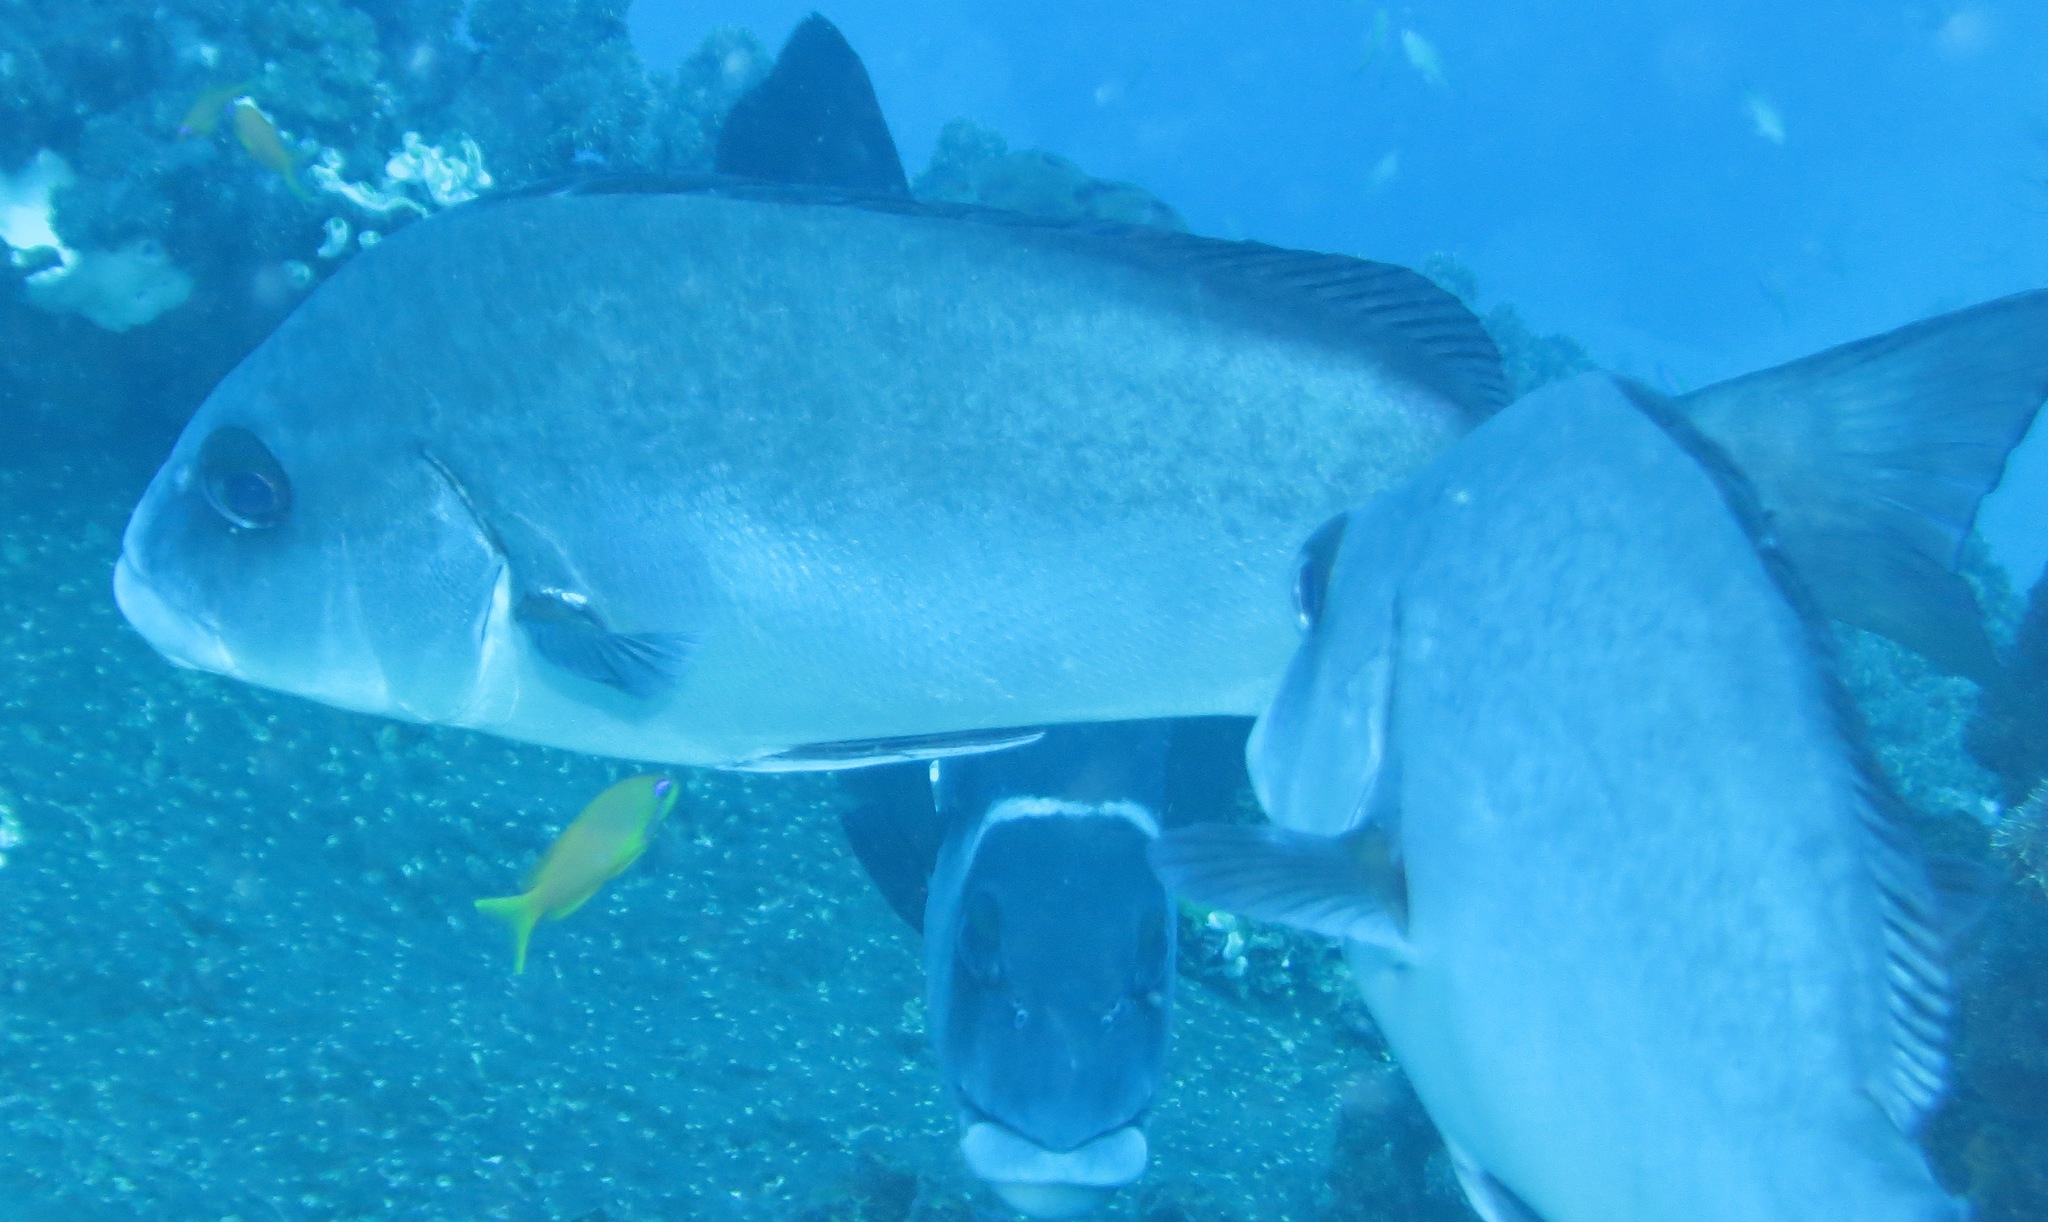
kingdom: Animalia
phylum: Chordata
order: Perciformes
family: Haemulidae
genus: Plectorhinchus
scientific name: Plectorhinchus chubbi
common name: Dusky rubberlip
